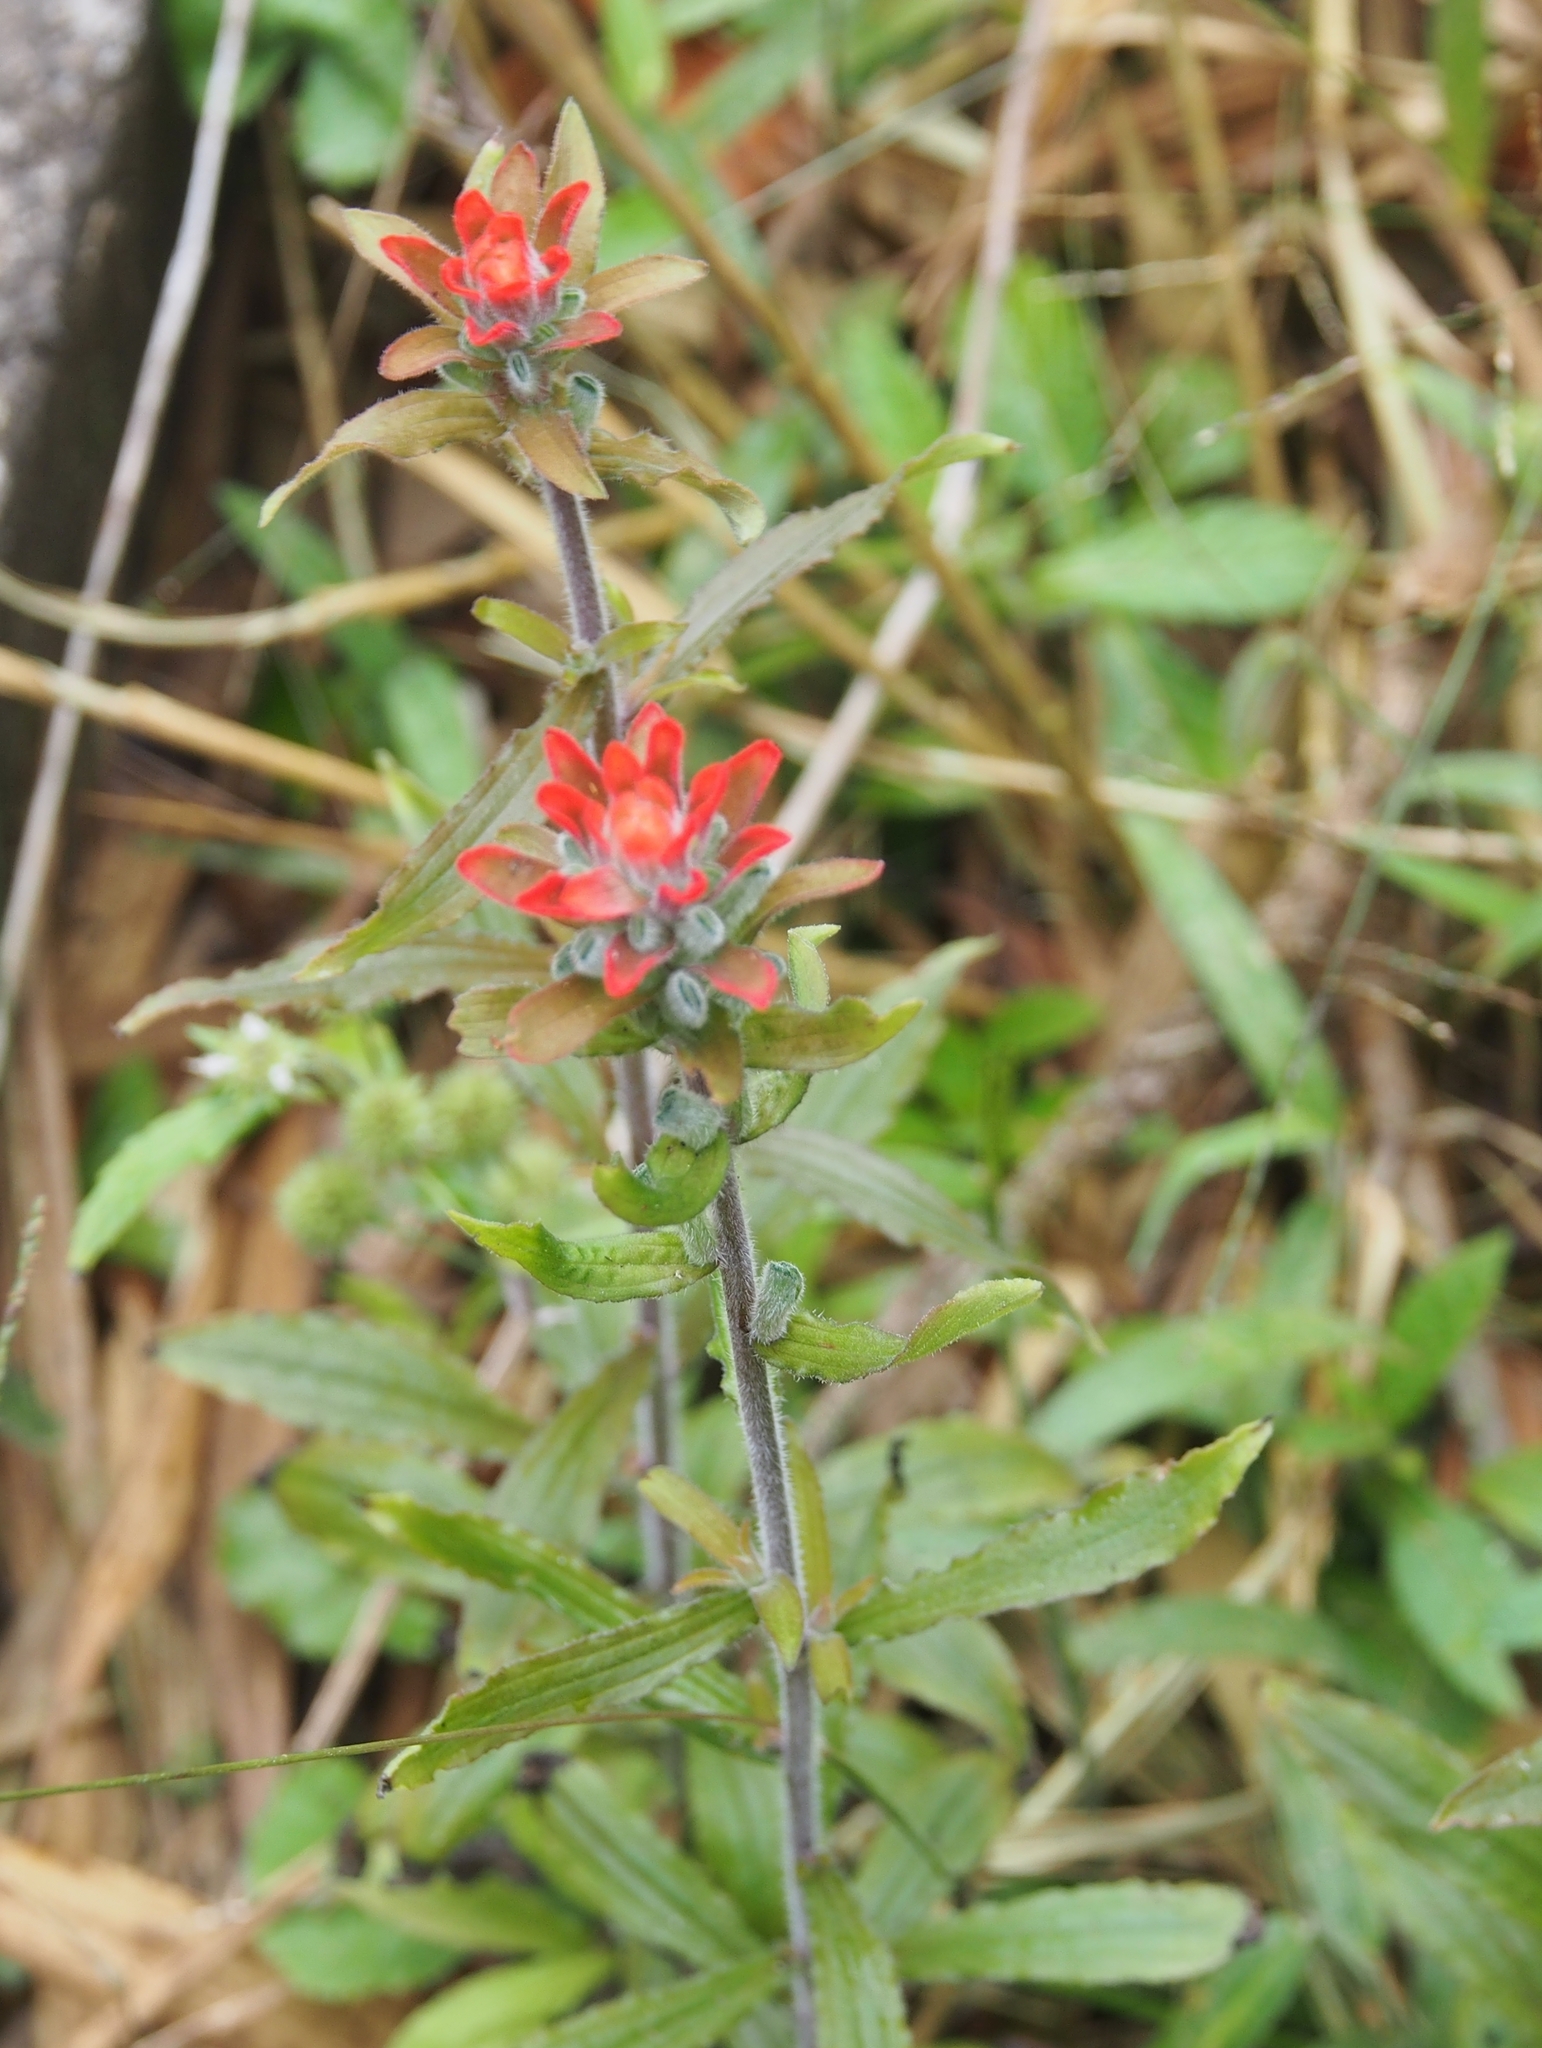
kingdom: Plantae
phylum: Tracheophyta
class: Magnoliopsida
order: Lamiales
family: Orobanchaceae
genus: Castilleja
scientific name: Castilleja arvensis
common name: Indian paintbrush
